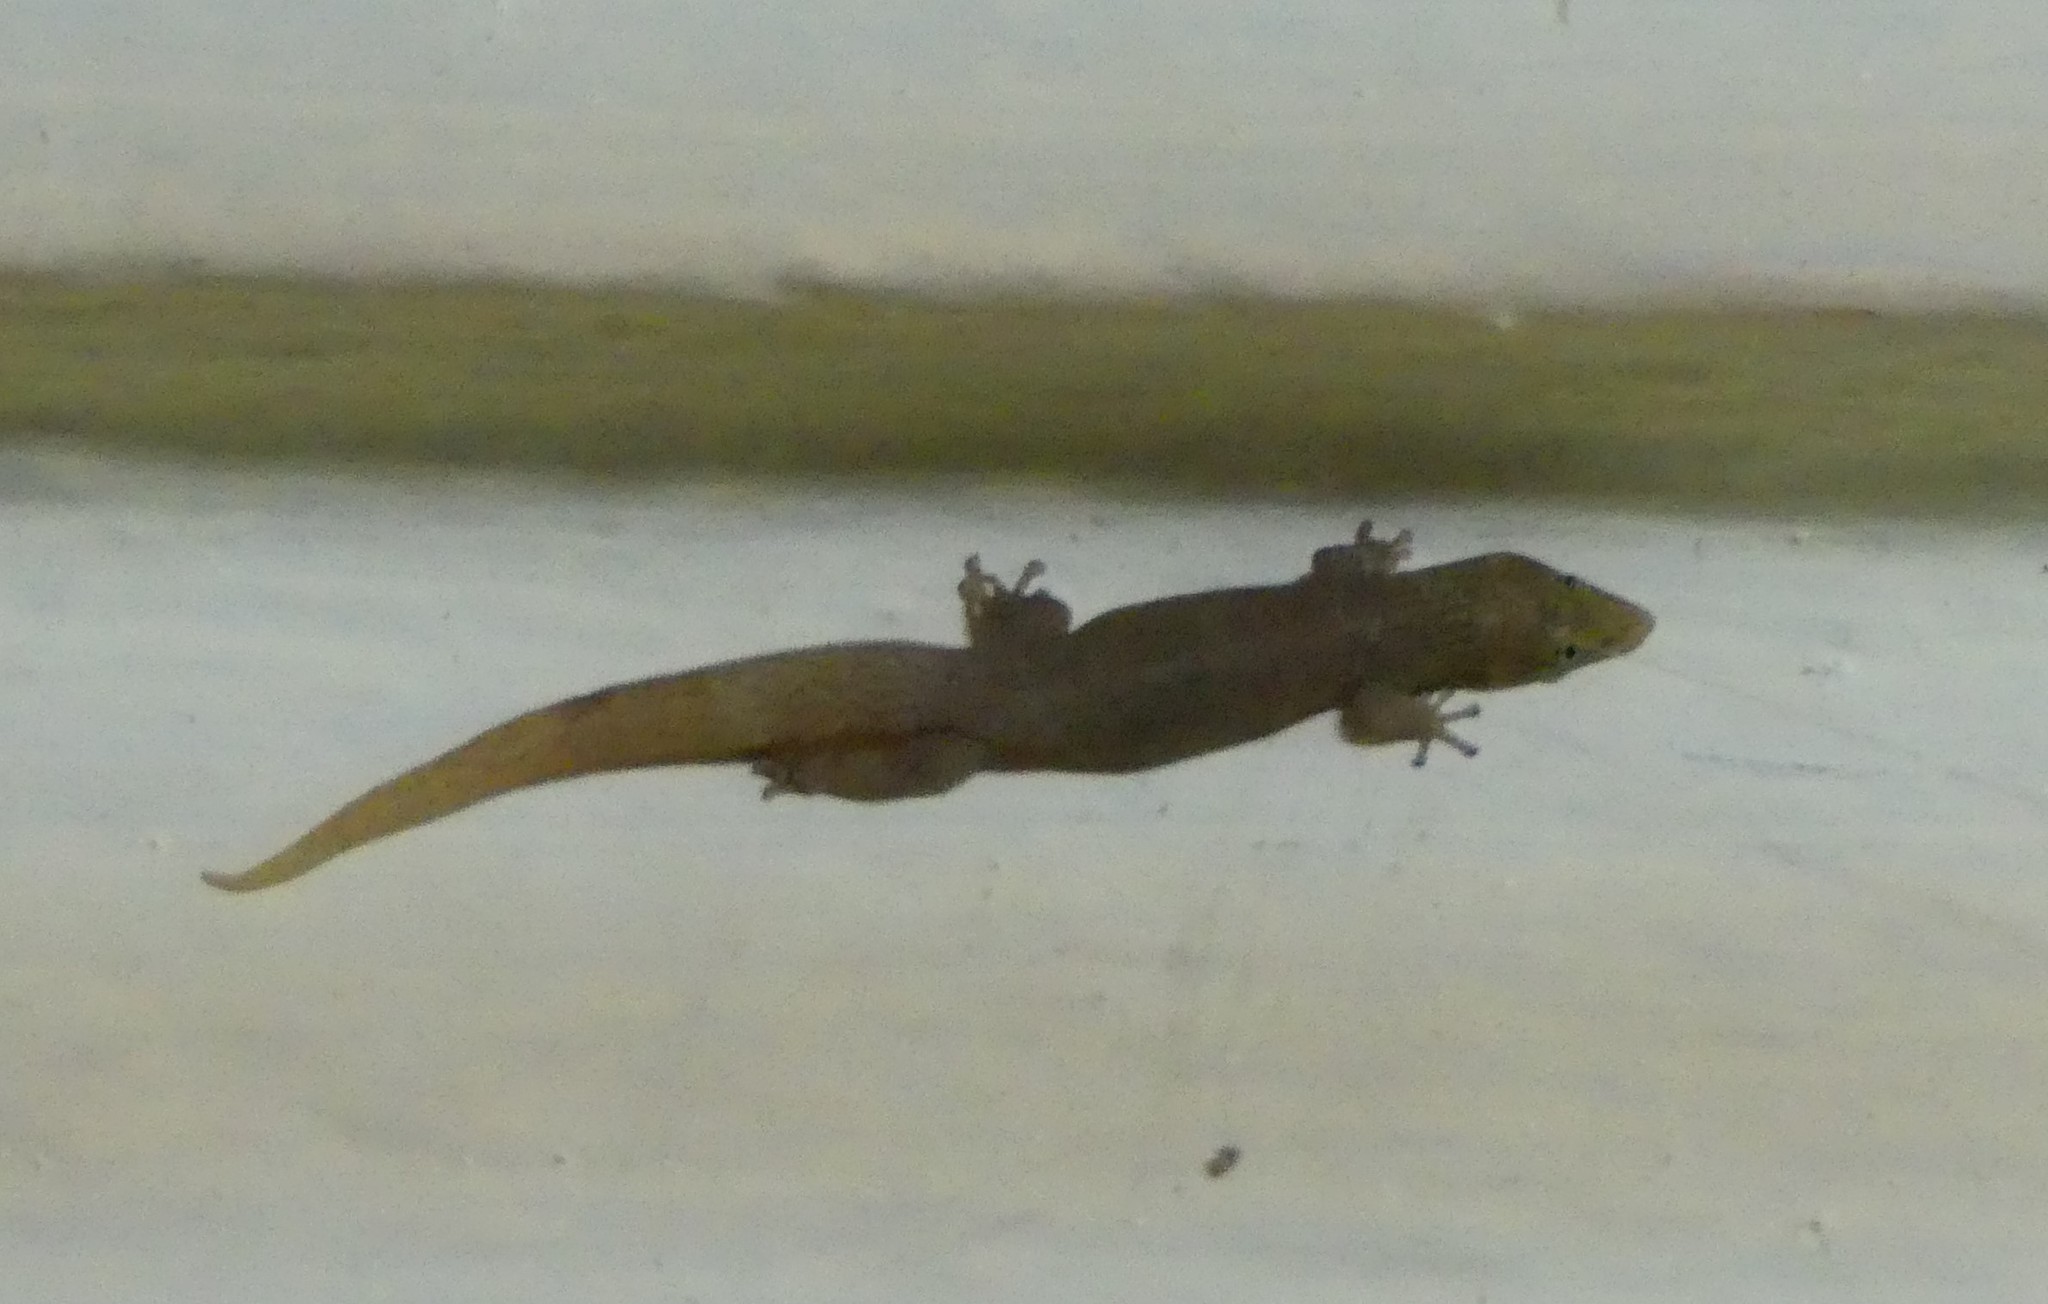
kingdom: Animalia
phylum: Chordata
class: Squamata
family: Sphaerodactylidae
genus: Sphaerodactylus
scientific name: Sphaerodactylus elegans
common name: Ashy gecko
